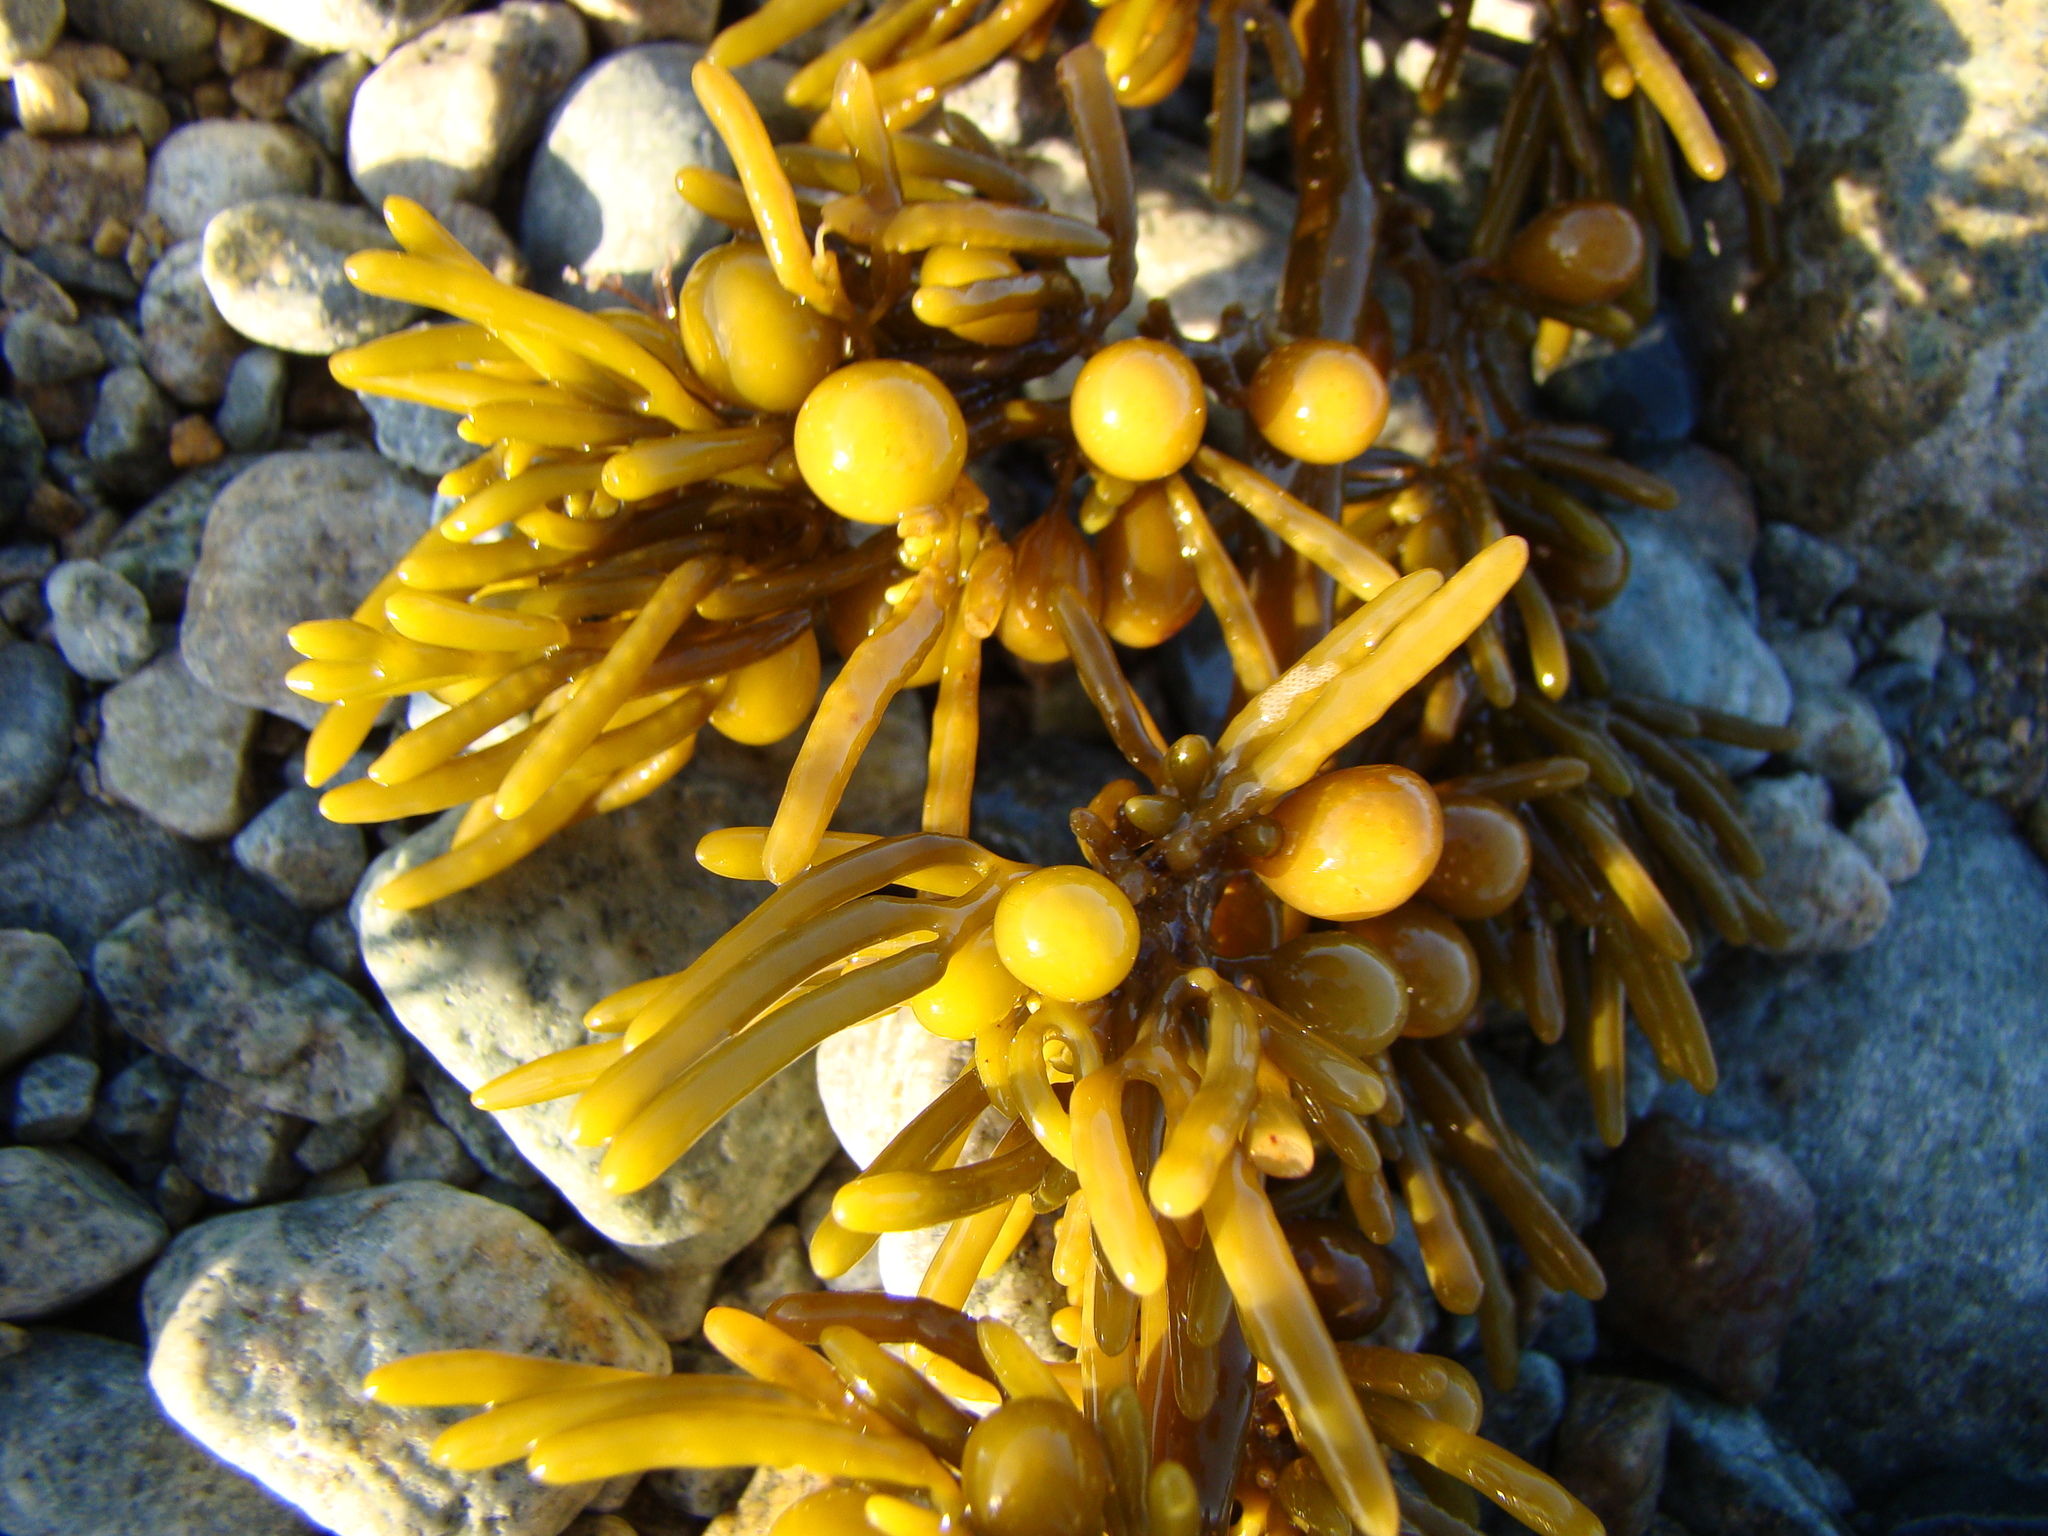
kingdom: Chromista
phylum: Ochrophyta
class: Phaeophyceae
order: Fucales
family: Sargassaceae
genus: Cystophora
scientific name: Cystophora torulosa
